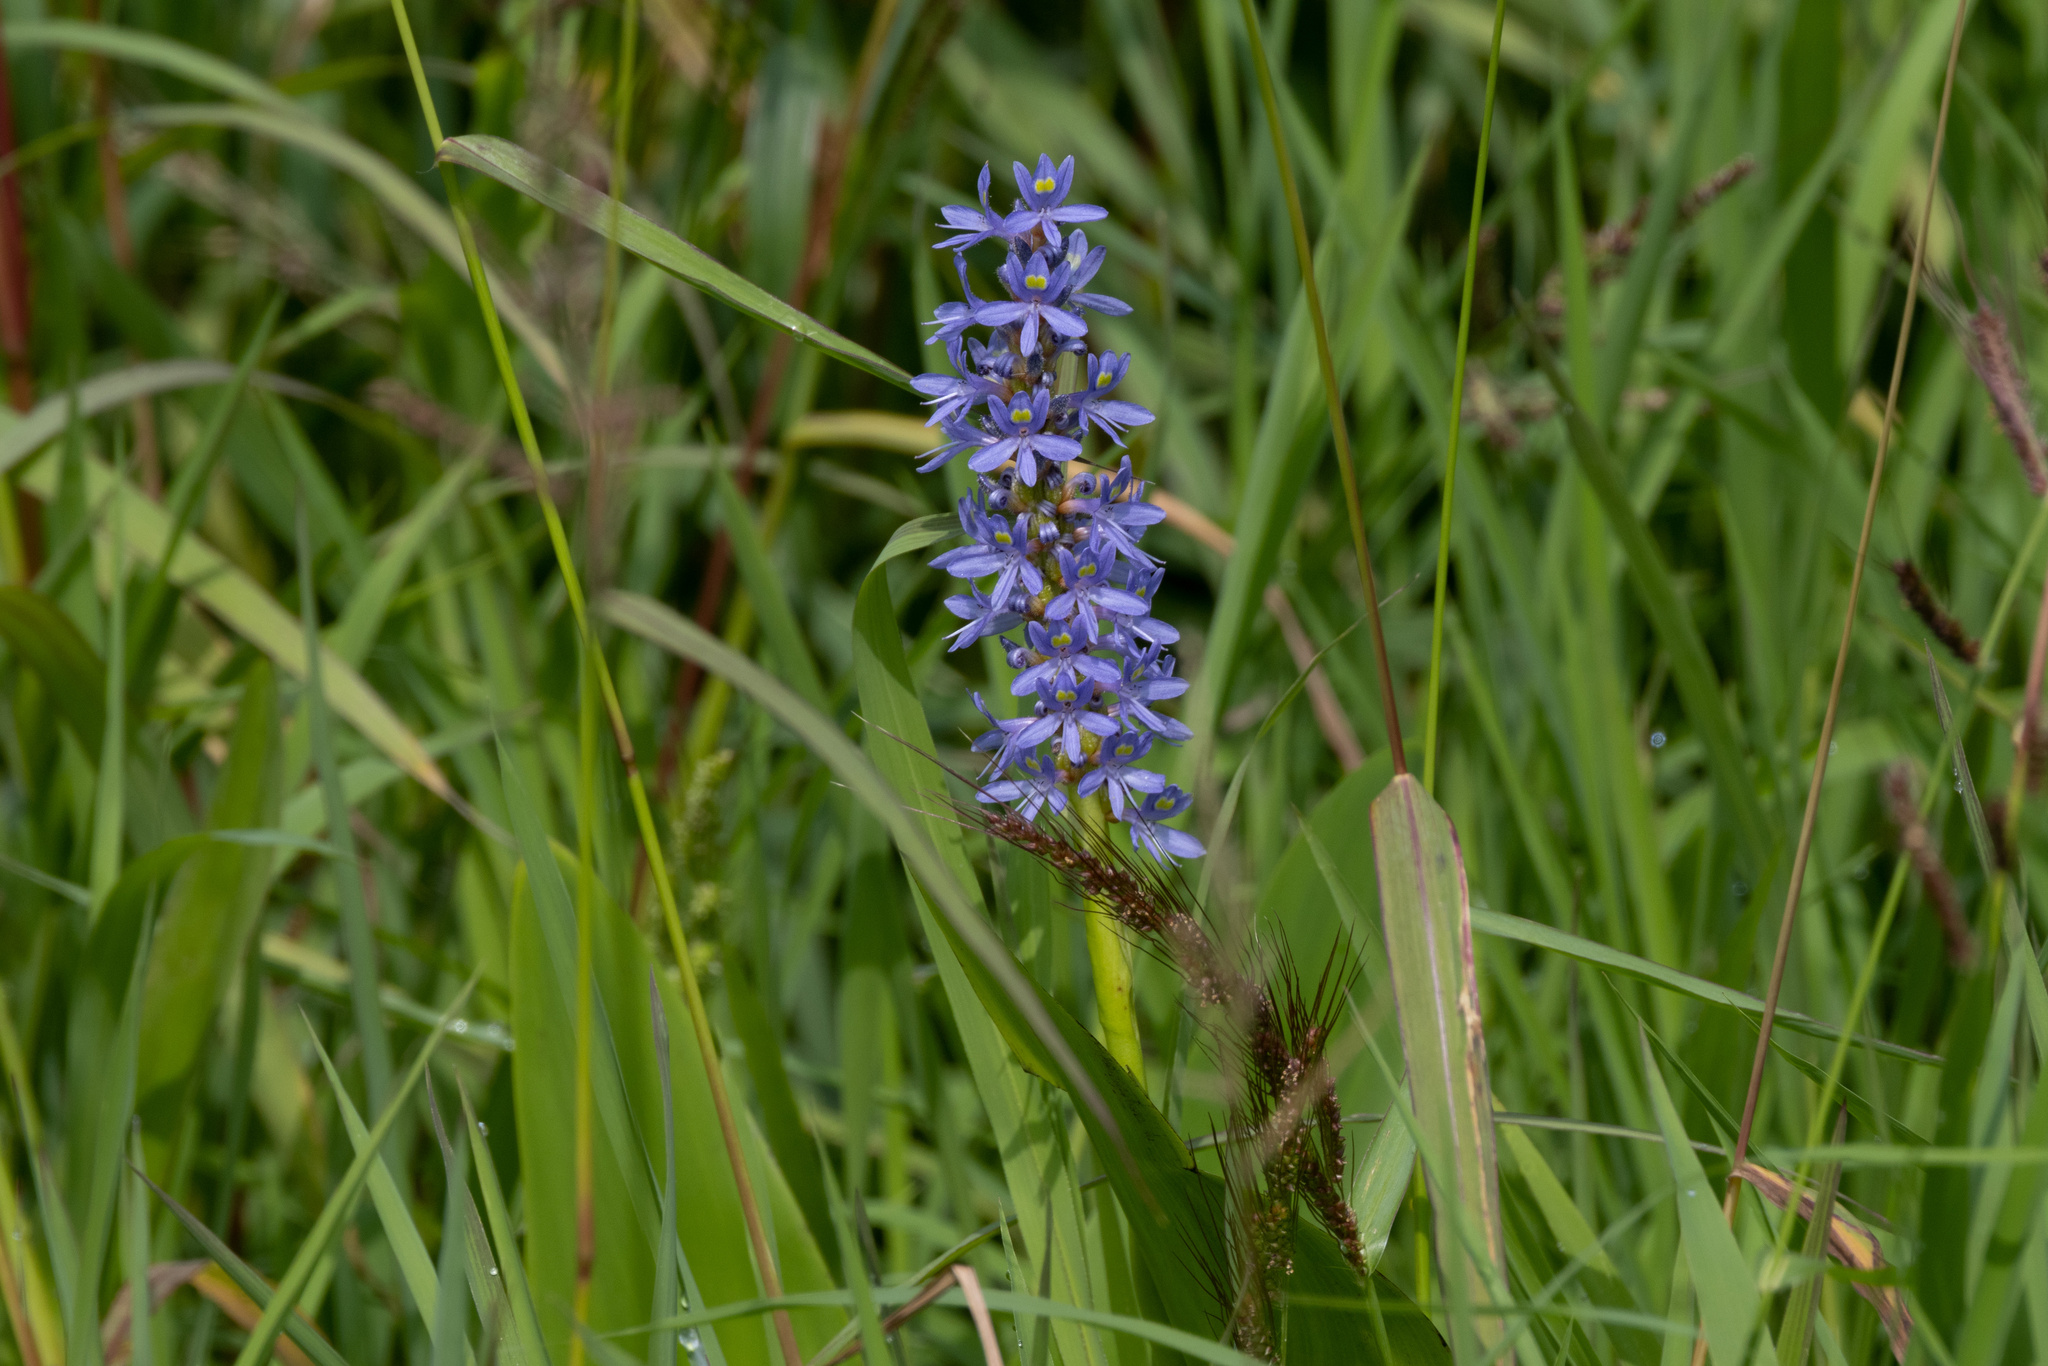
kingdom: Plantae
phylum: Tracheophyta
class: Liliopsida
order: Commelinales
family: Pontederiaceae
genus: Pontederia
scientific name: Pontederia cordata
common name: Pickerelweed
